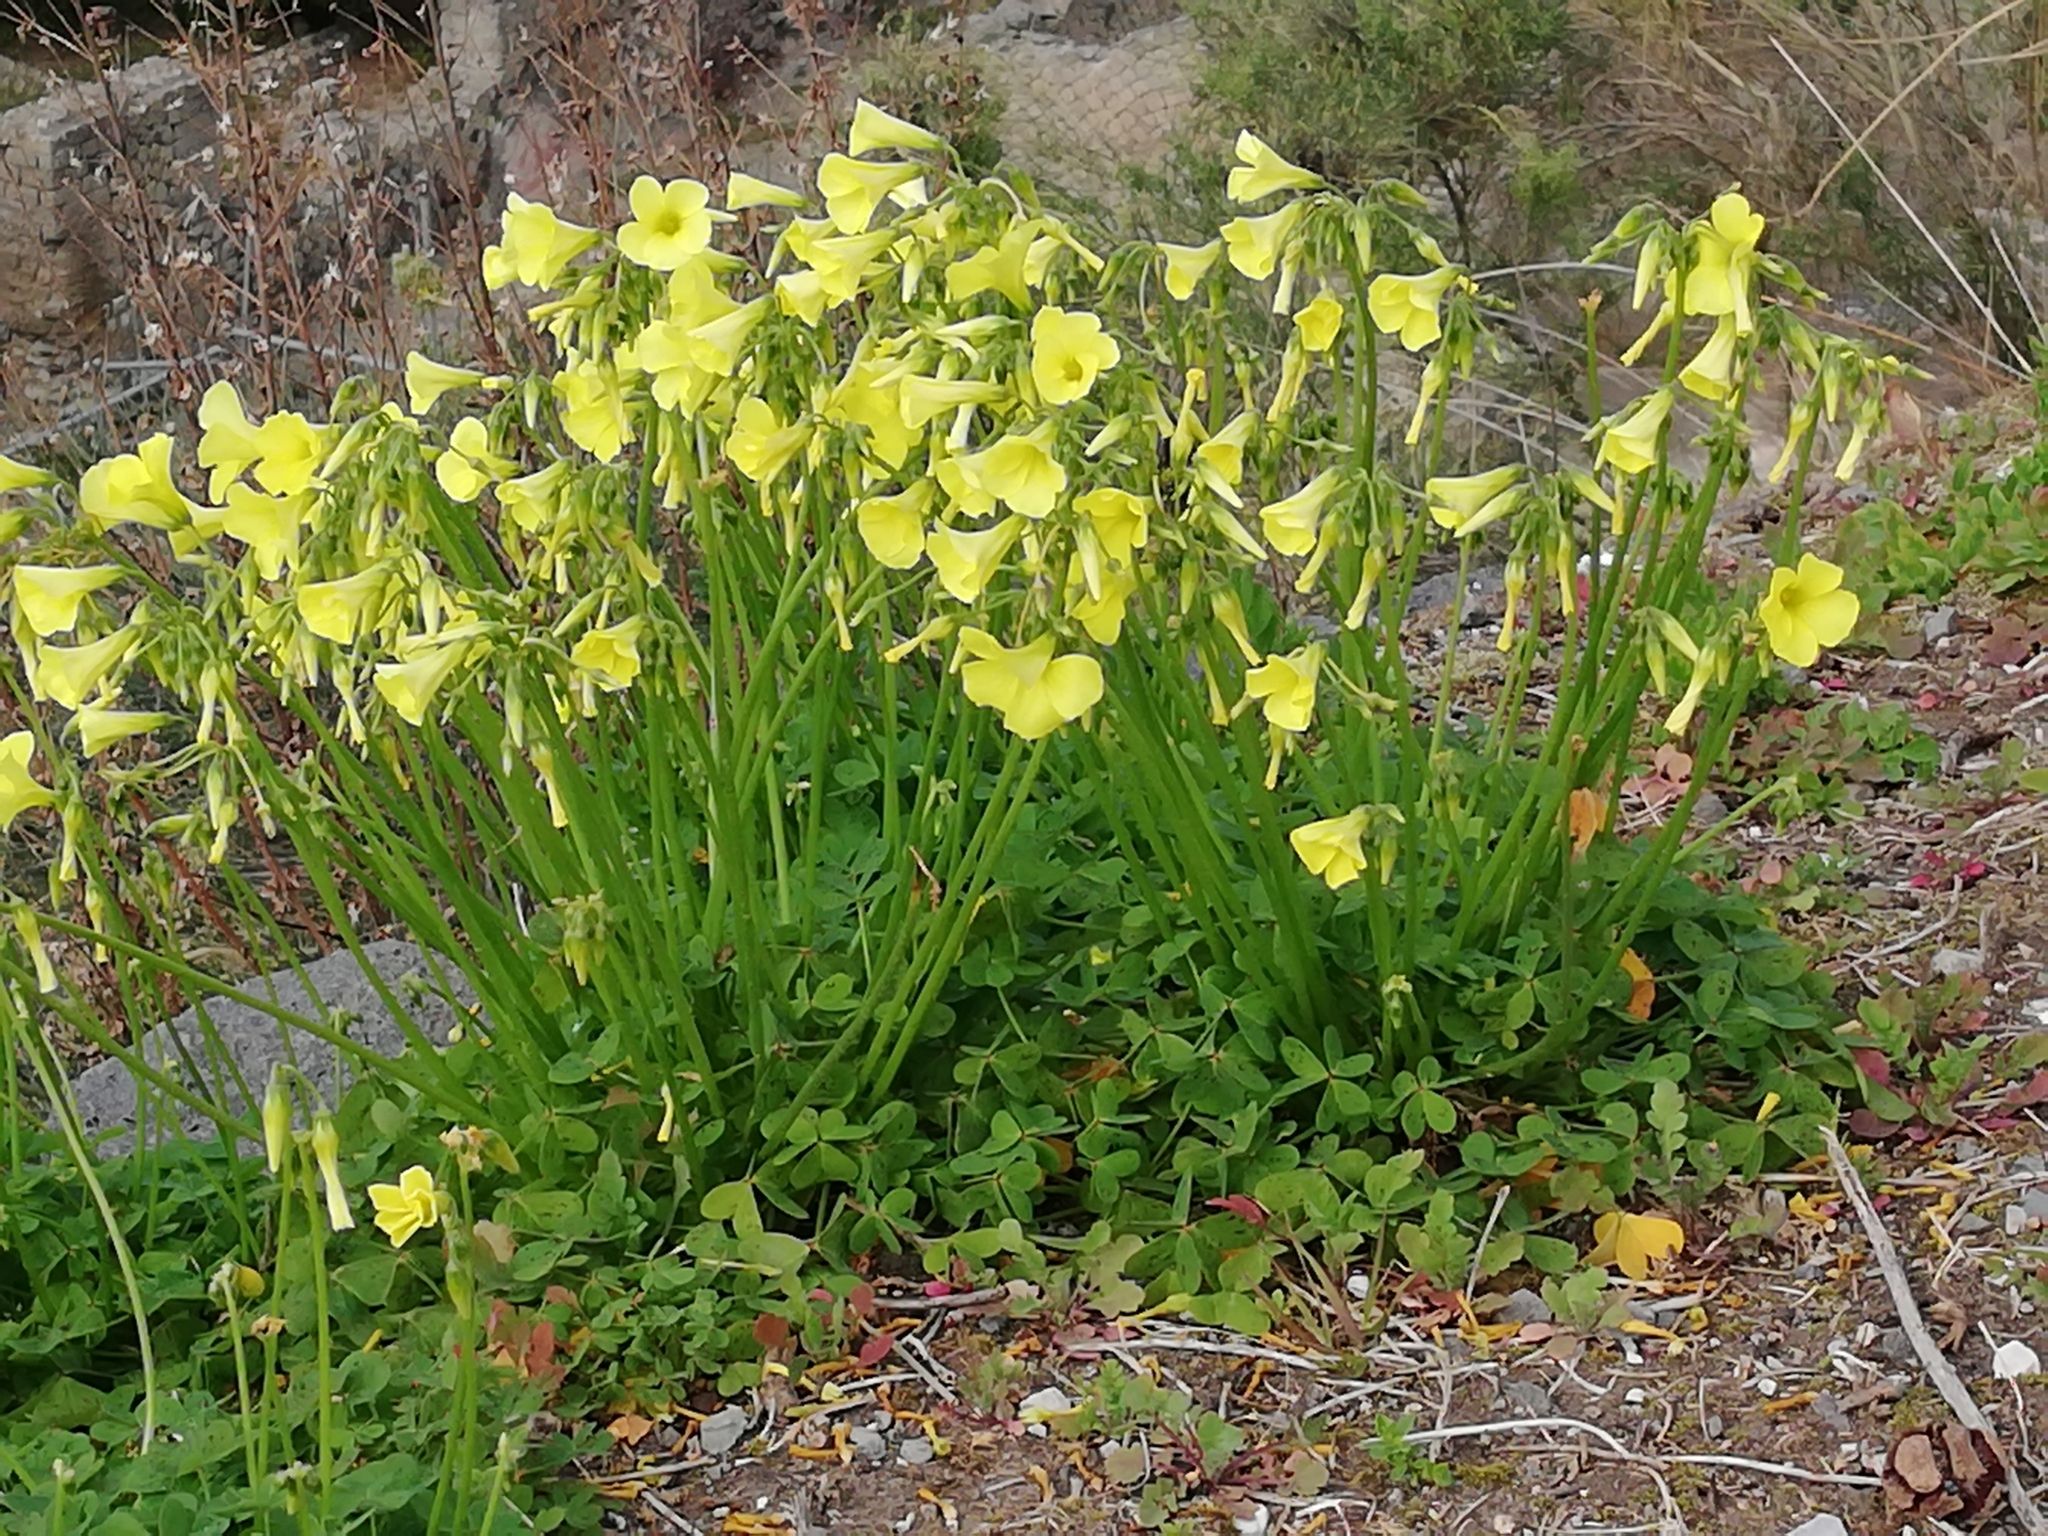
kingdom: Plantae
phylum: Tracheophyta
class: Magnoliopsida
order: Oxalidales
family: Oxalidaceae
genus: Oxalis
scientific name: Oxalis pes-caprae
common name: Bermuda-buttercup
